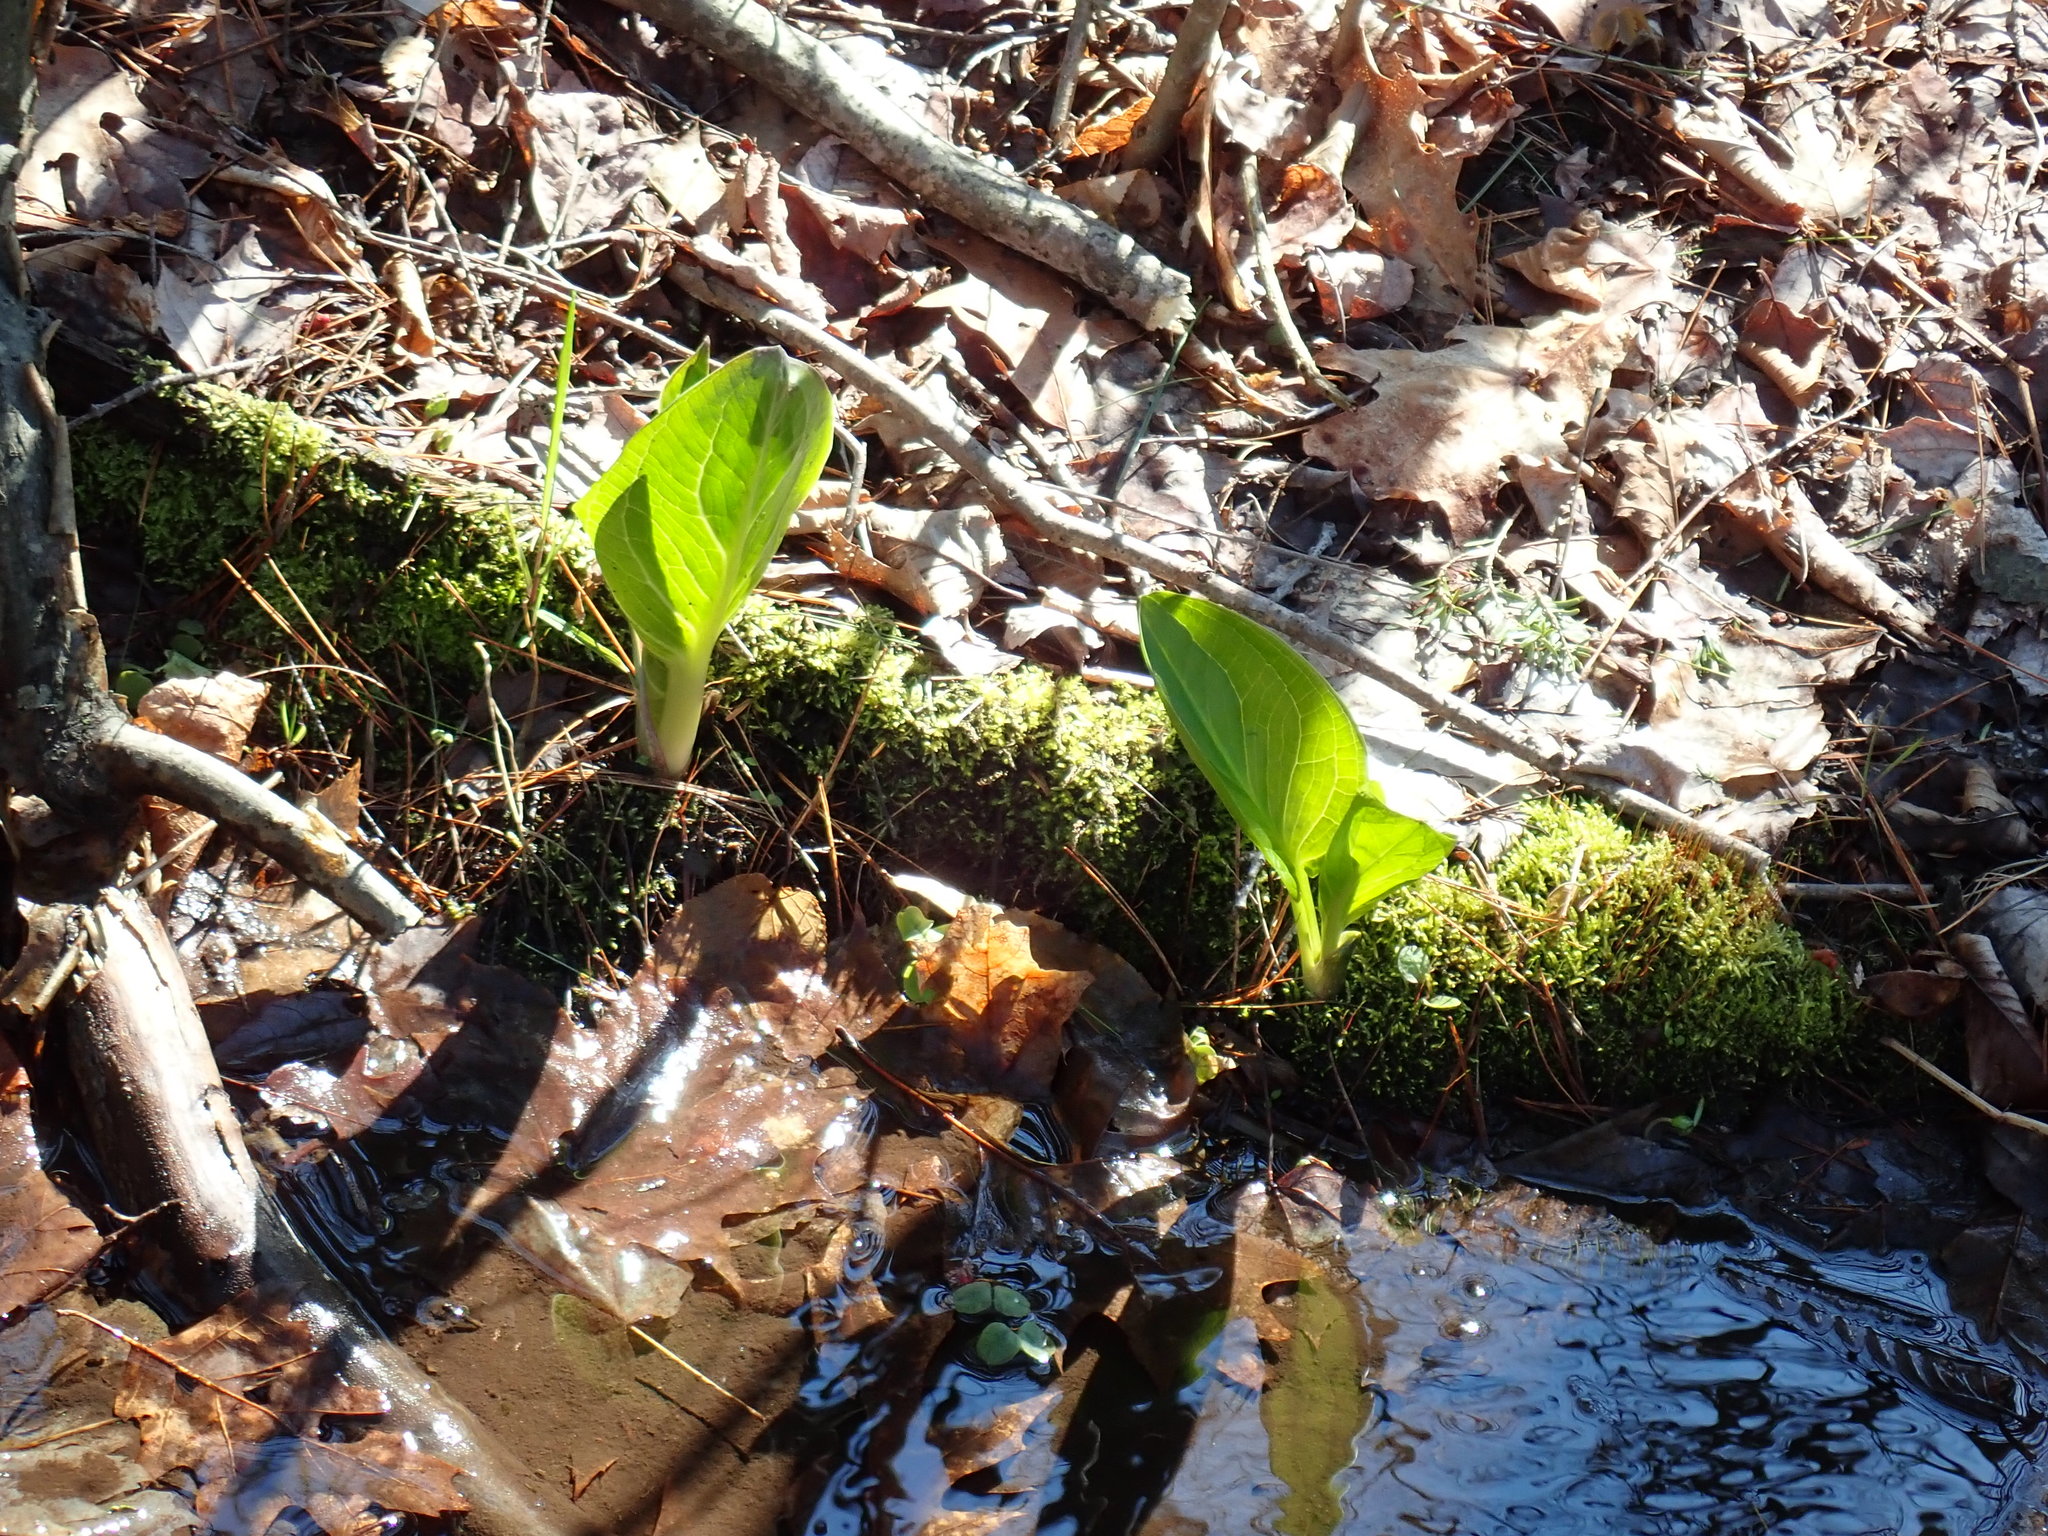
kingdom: Plantae
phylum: Tracheophyta
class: Liliopsida
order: Alismatales
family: Araceae
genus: Symplocarpus
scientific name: Symplocarpus foetidus
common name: Eastern skunk cabbage
